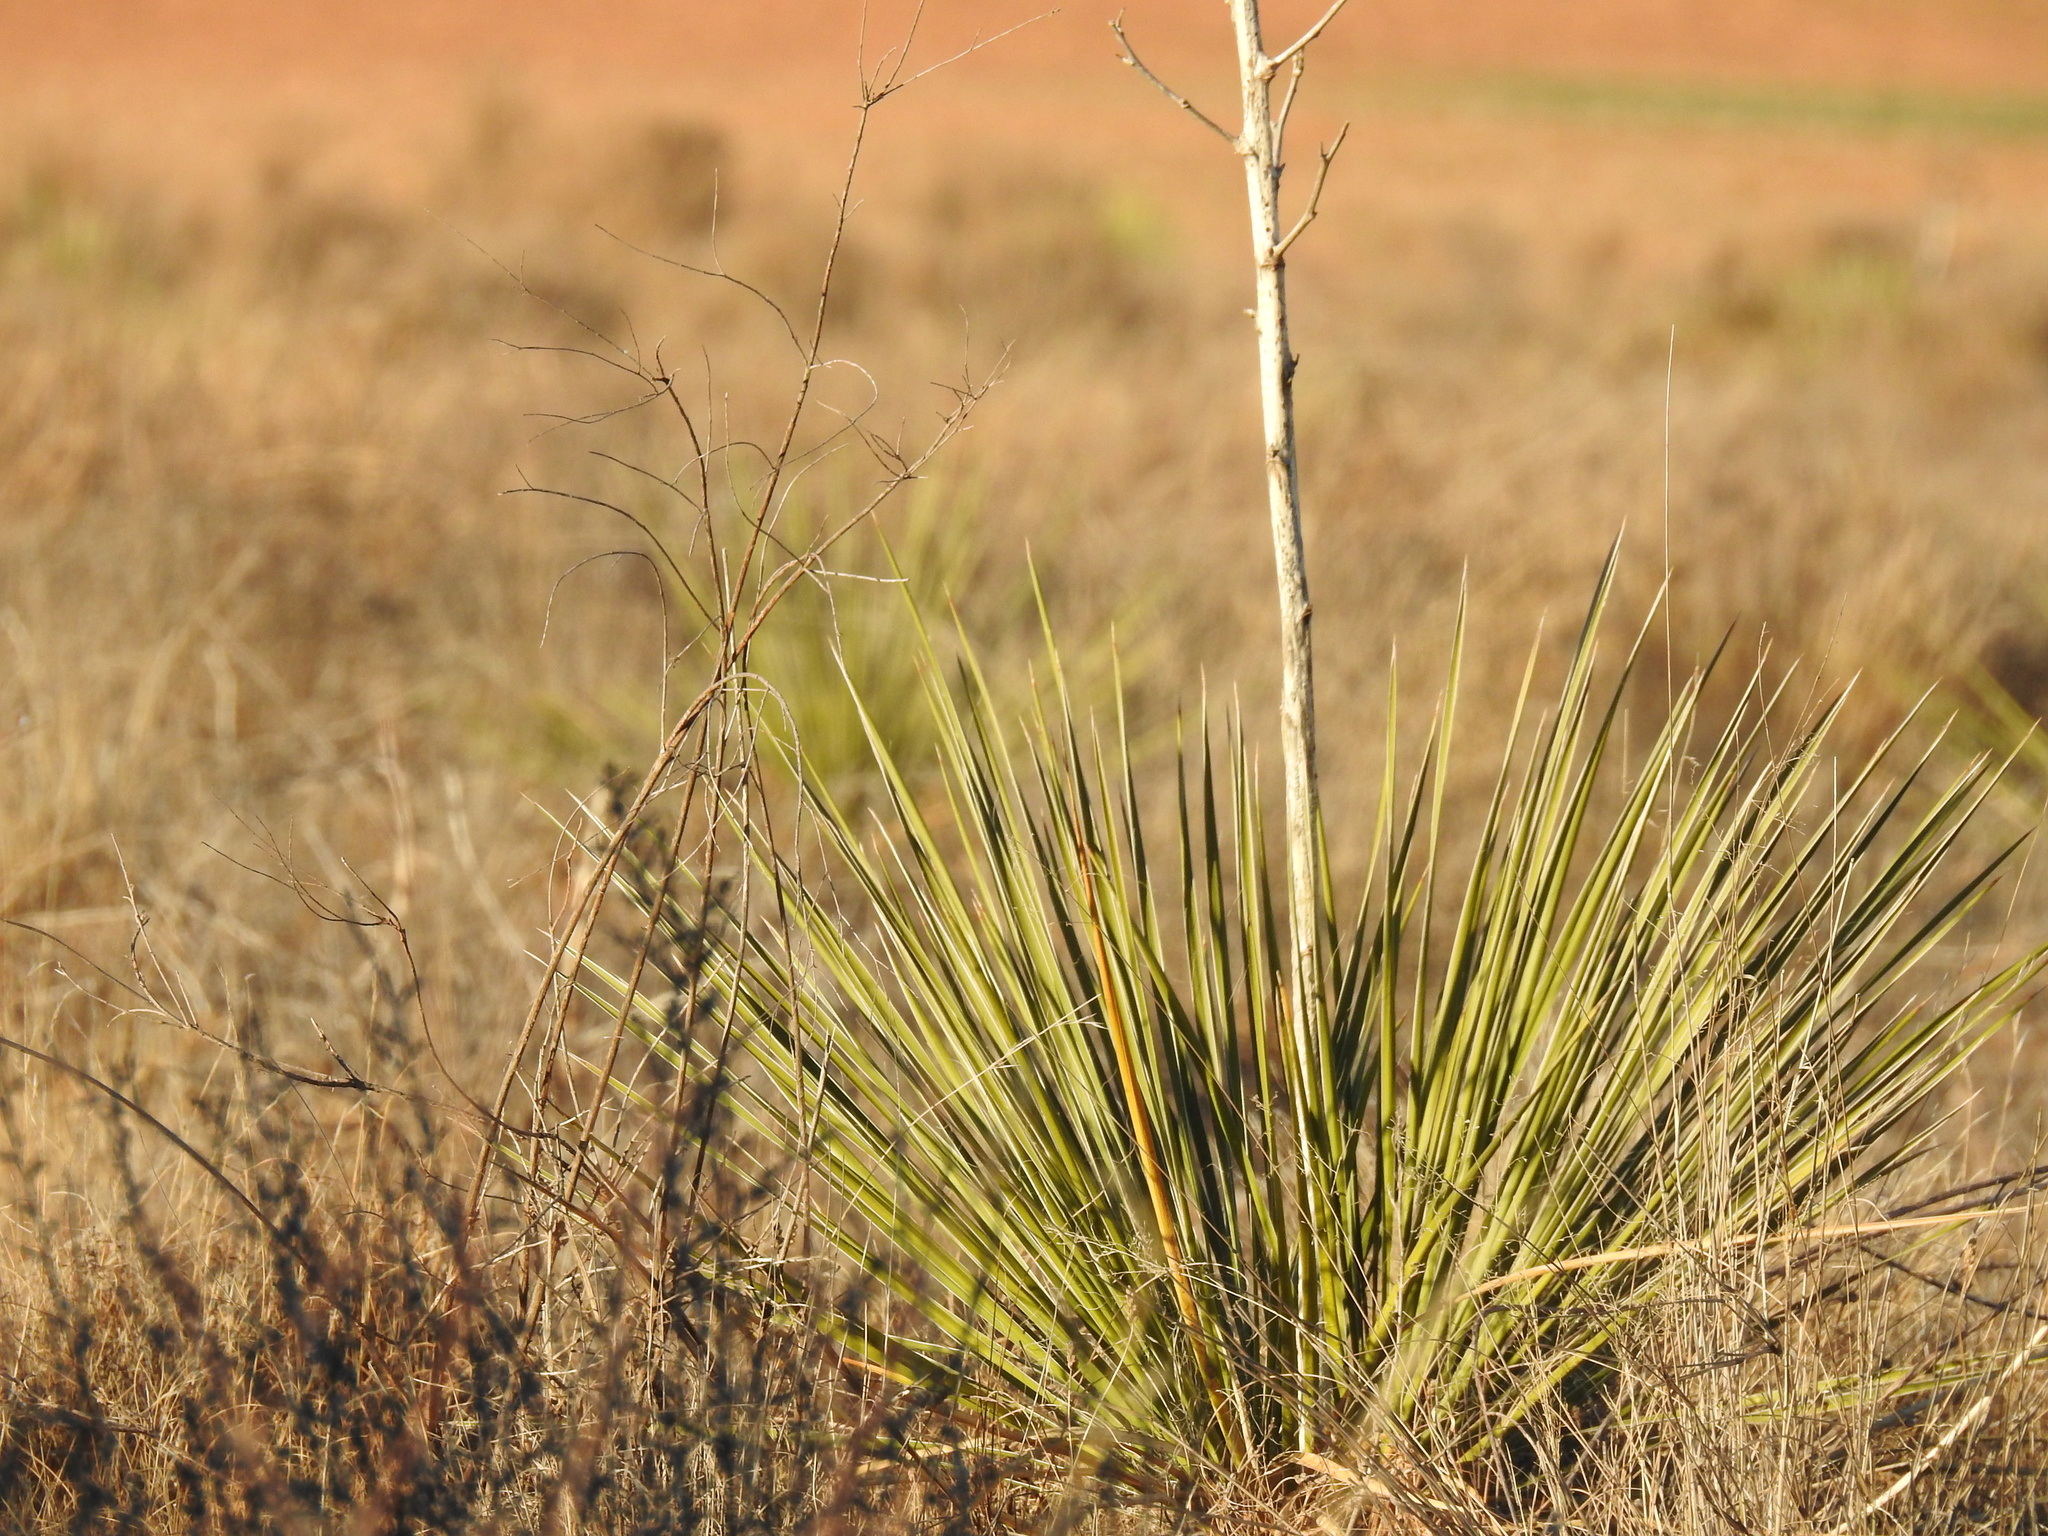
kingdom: Plantae
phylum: Tracheophyta
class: Liliopsida
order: Asparagales
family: Asparagaceae
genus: Yucca
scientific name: Yucca campestris
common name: Plains yucca
